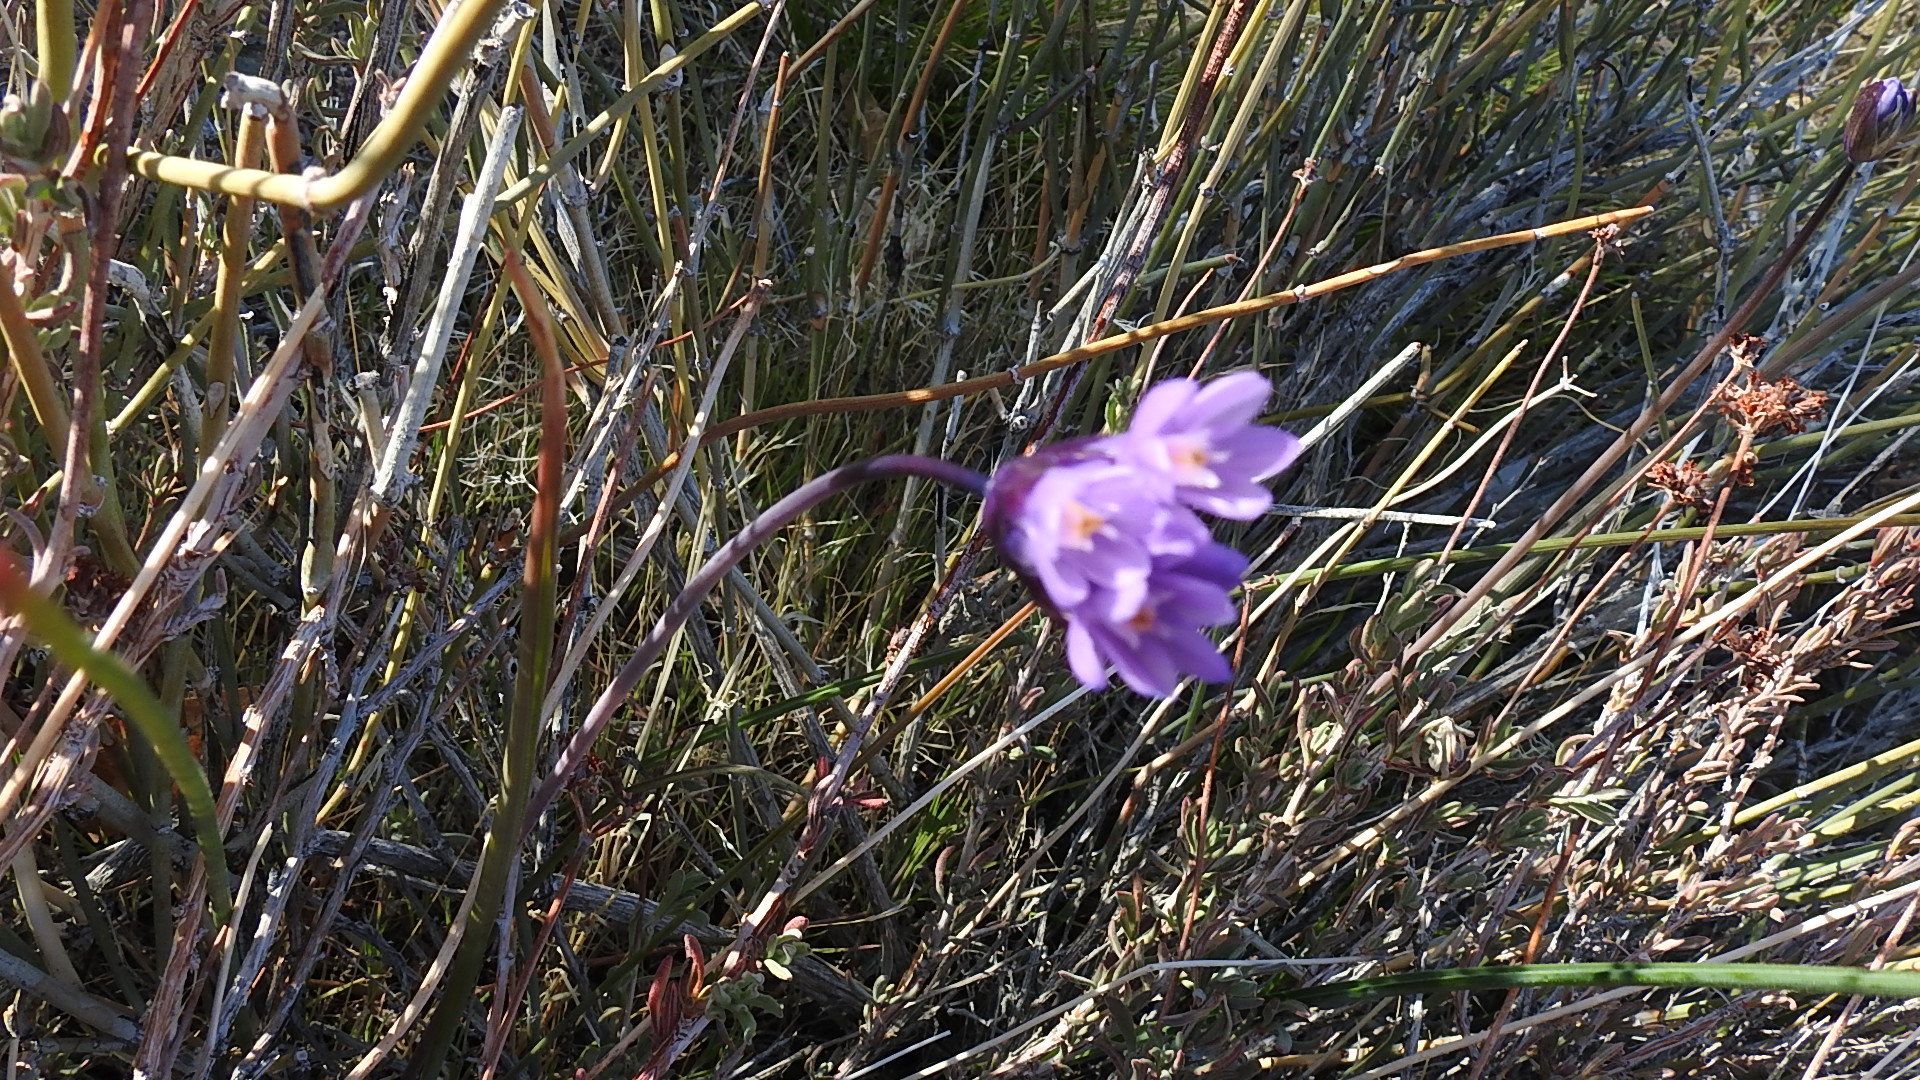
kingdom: Plantae
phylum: Tracheophyta
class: Liliopsida
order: Asparagales
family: Asparagaceae
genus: Dipterostemon
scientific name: Dipterostemon capitatus
